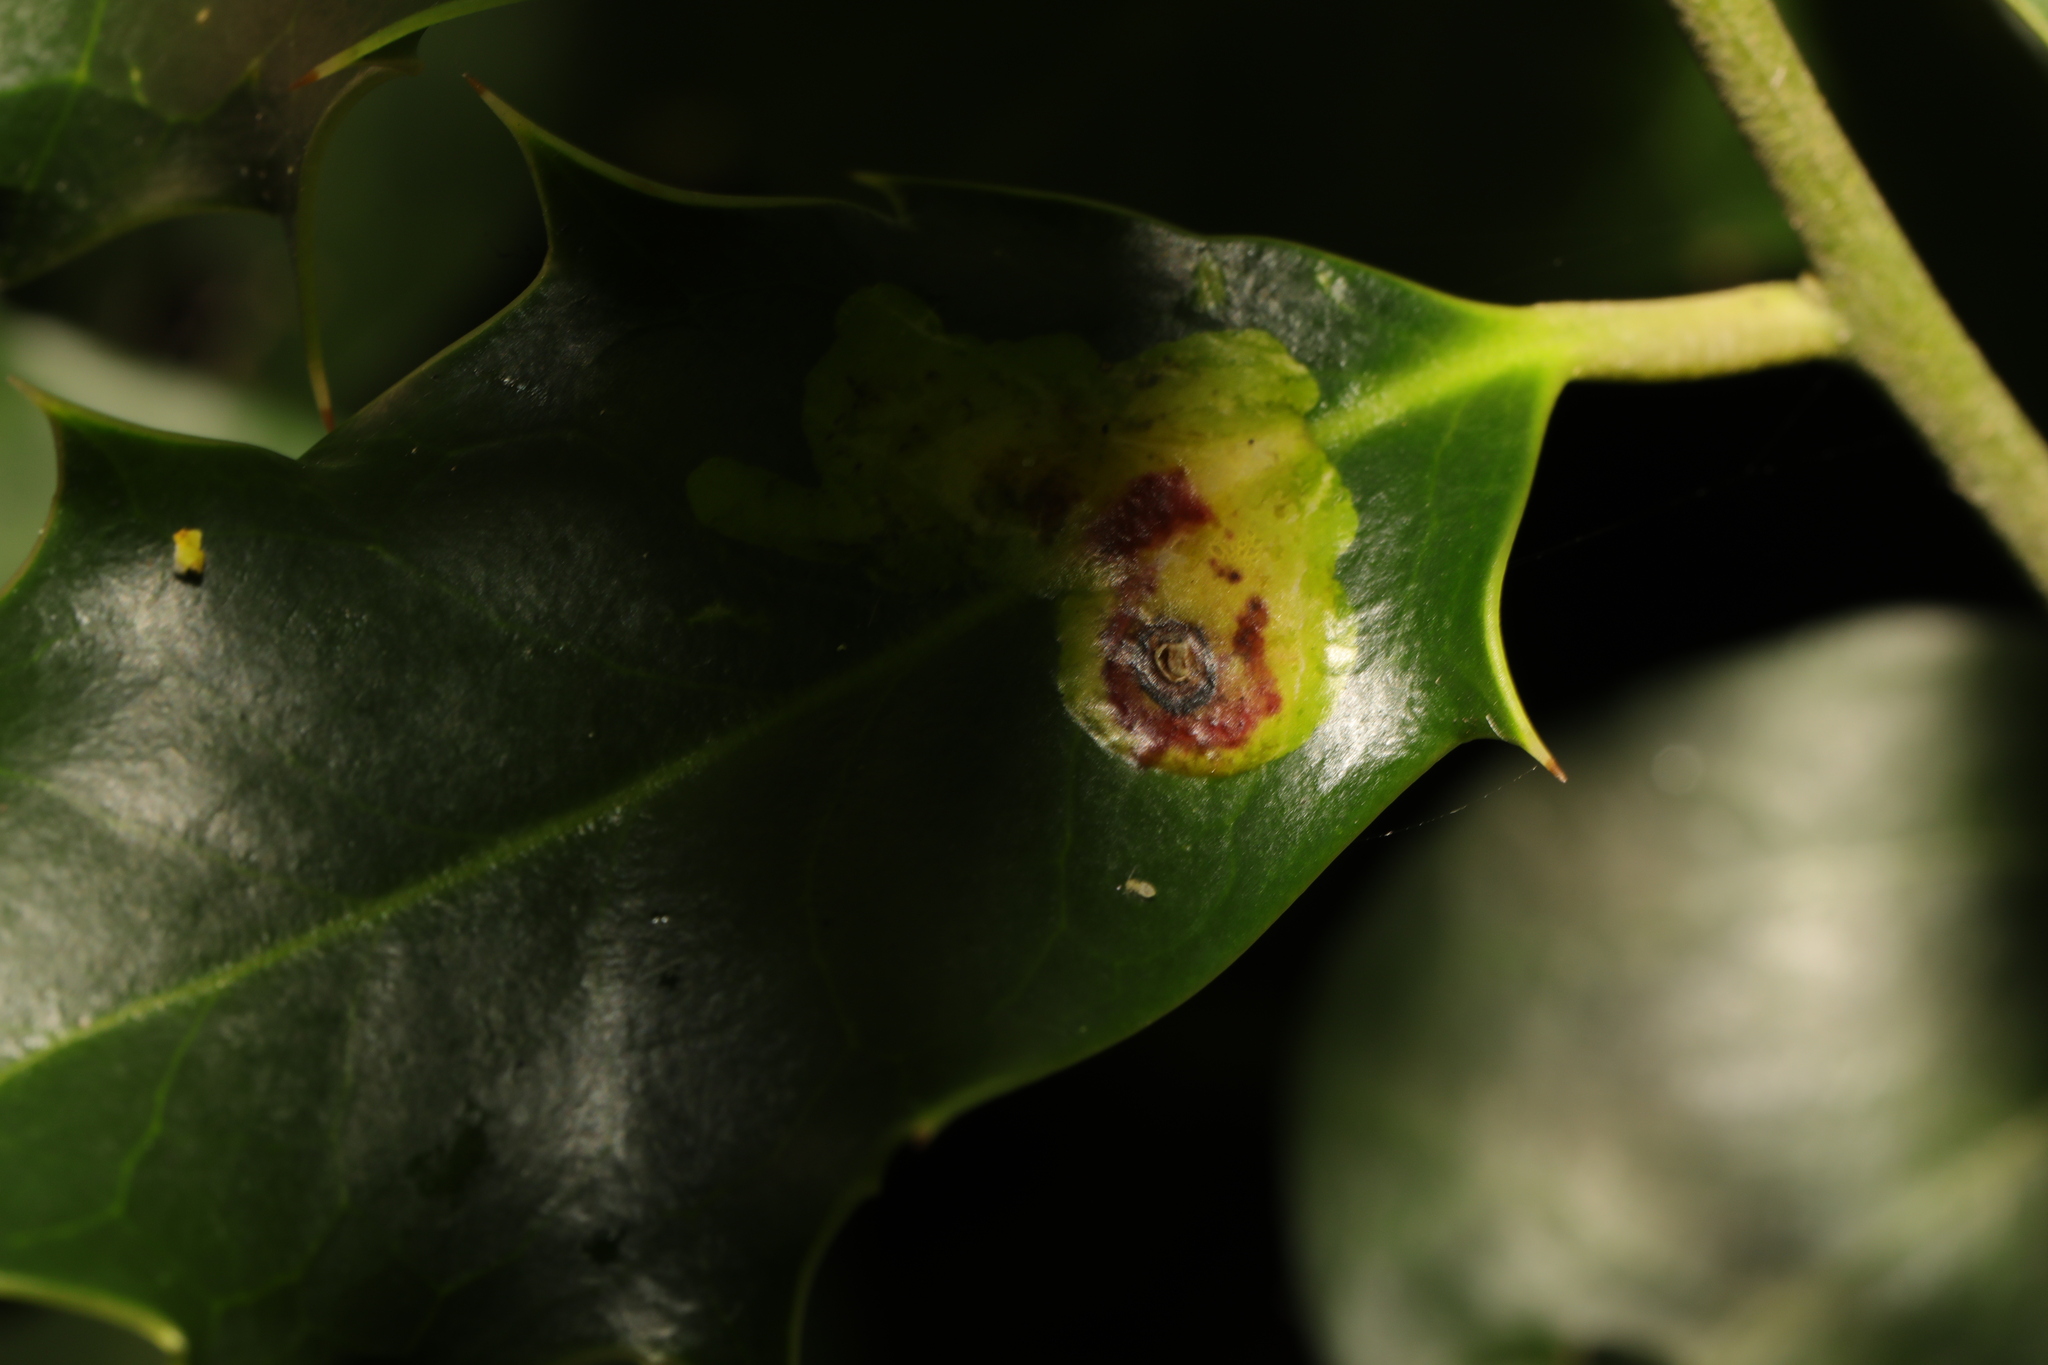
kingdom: Animalia
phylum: Arthropoda
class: Insecta
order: Diptera
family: Agromyzidae
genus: Phytomyza
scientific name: Phytomyza ilicis
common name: Holly leafminer
